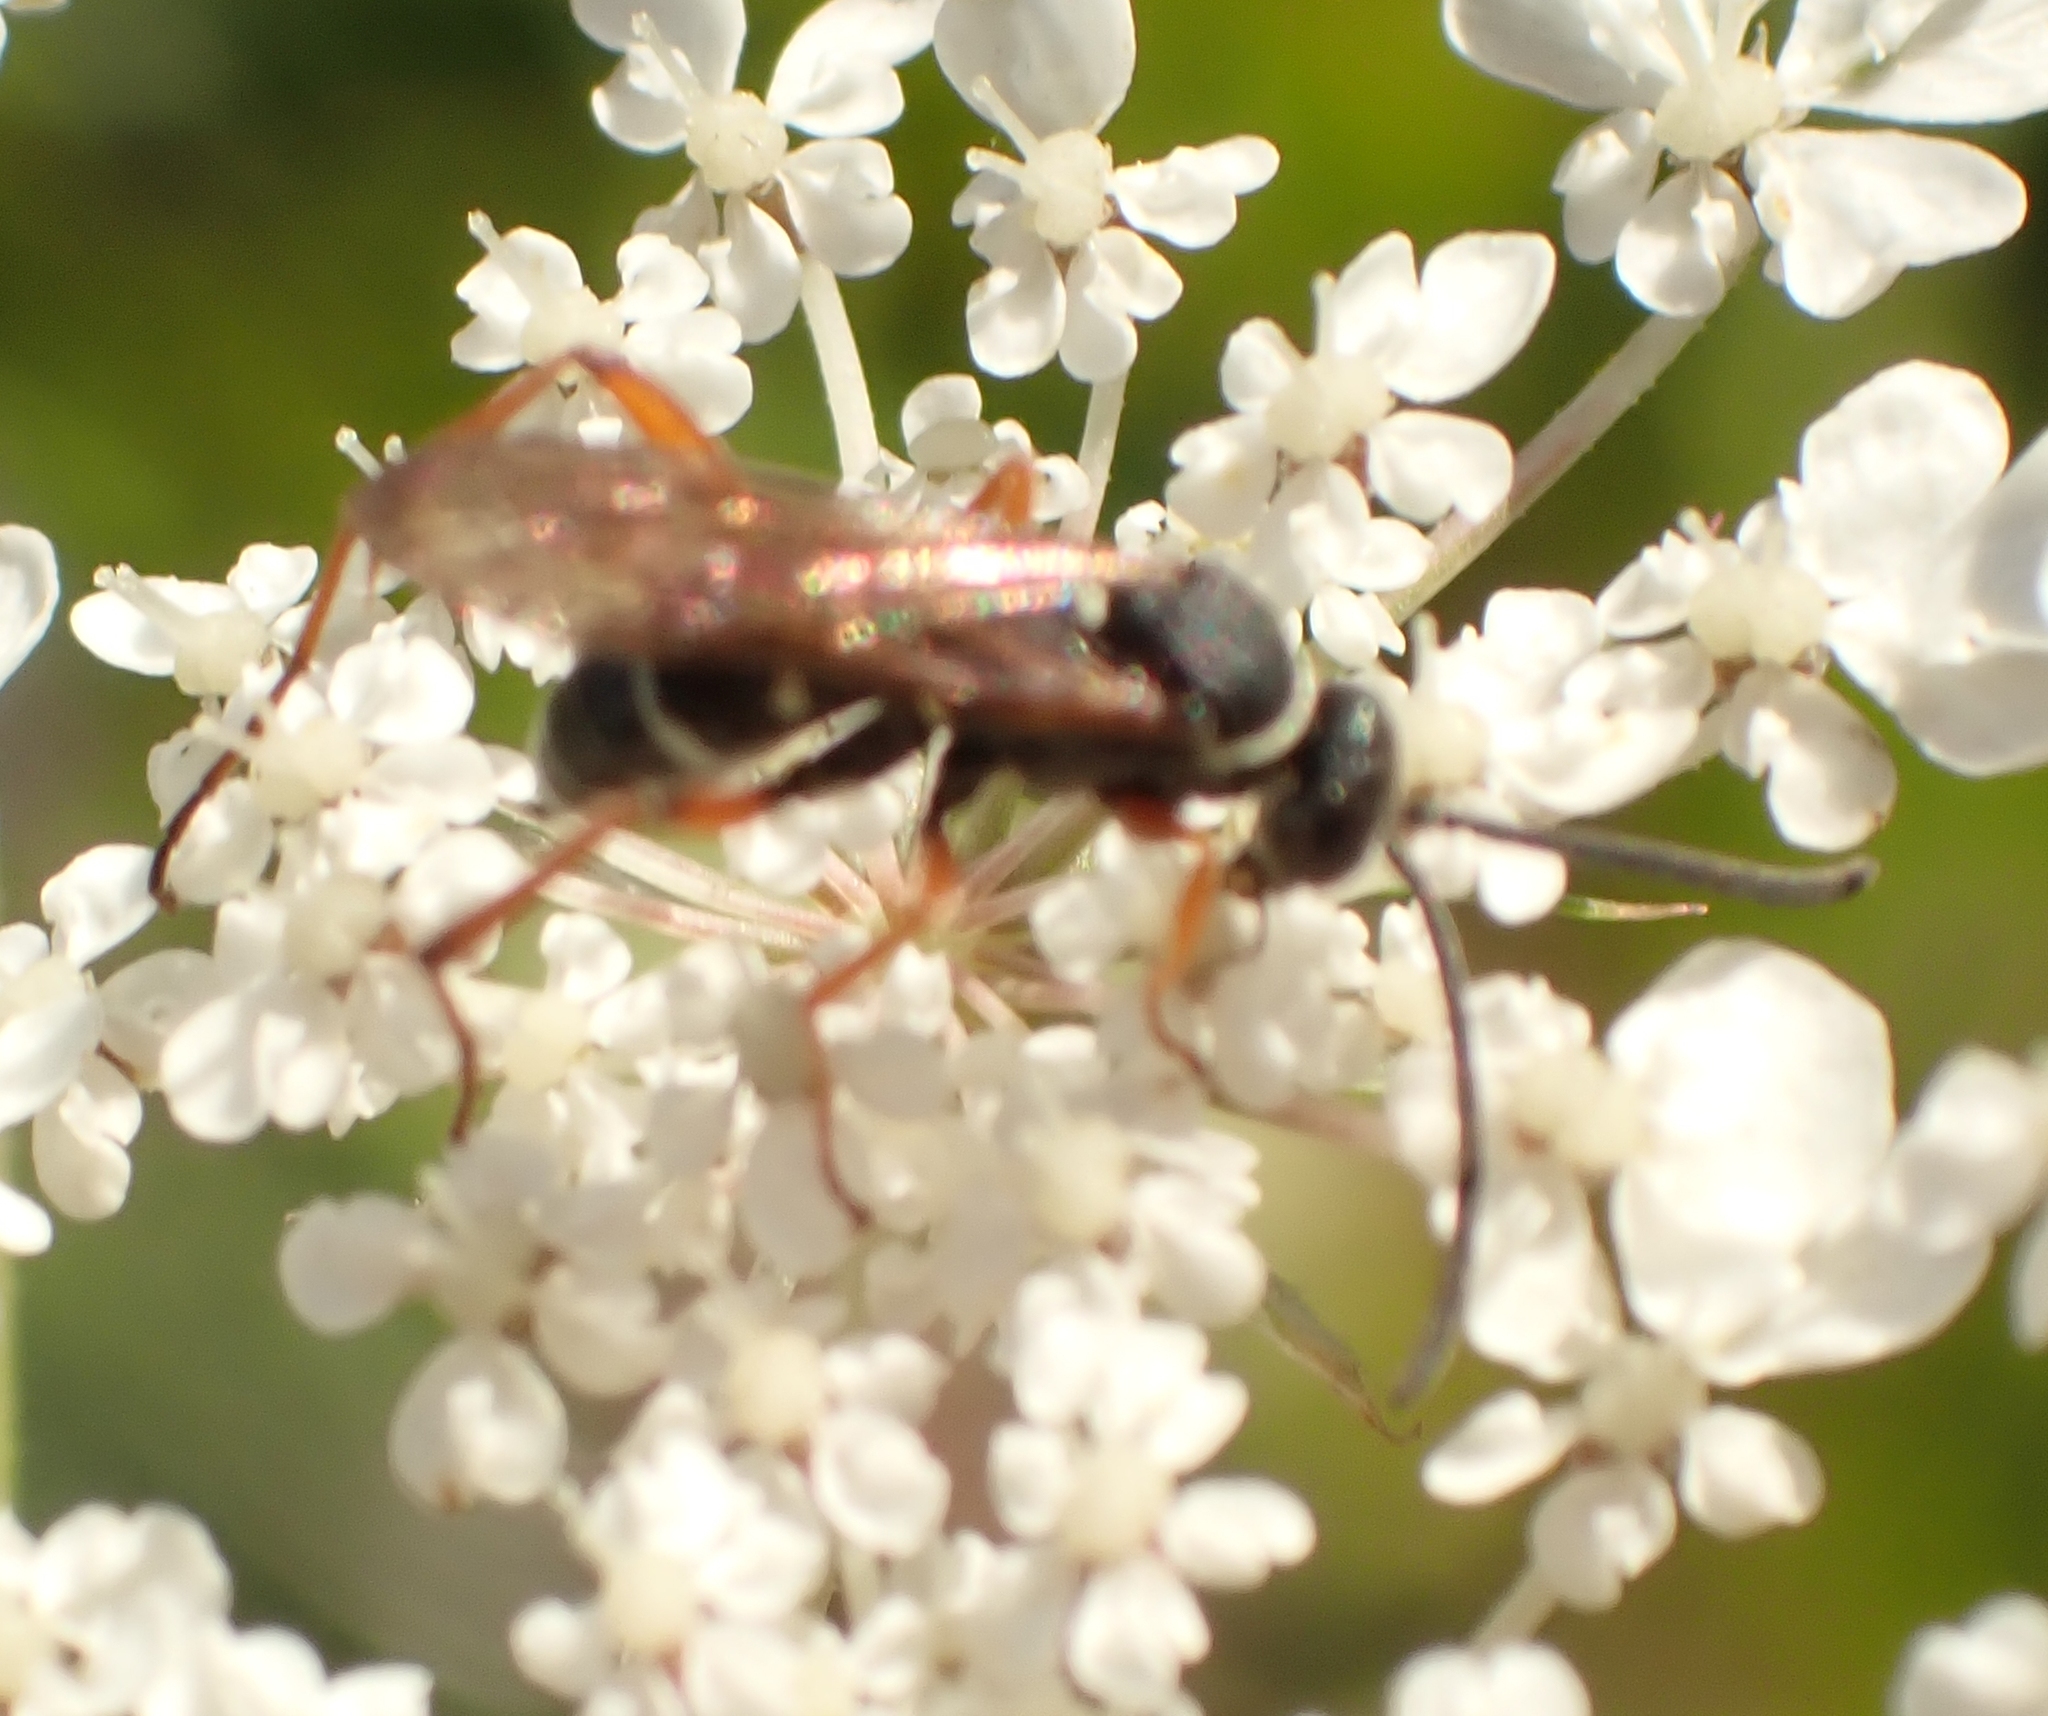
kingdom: Animalia
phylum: Arthropoda
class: Insecta
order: Hymenoptera
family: Pompilidae
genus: Ceropales
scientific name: Ceropales maculata
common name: Spider wasp
